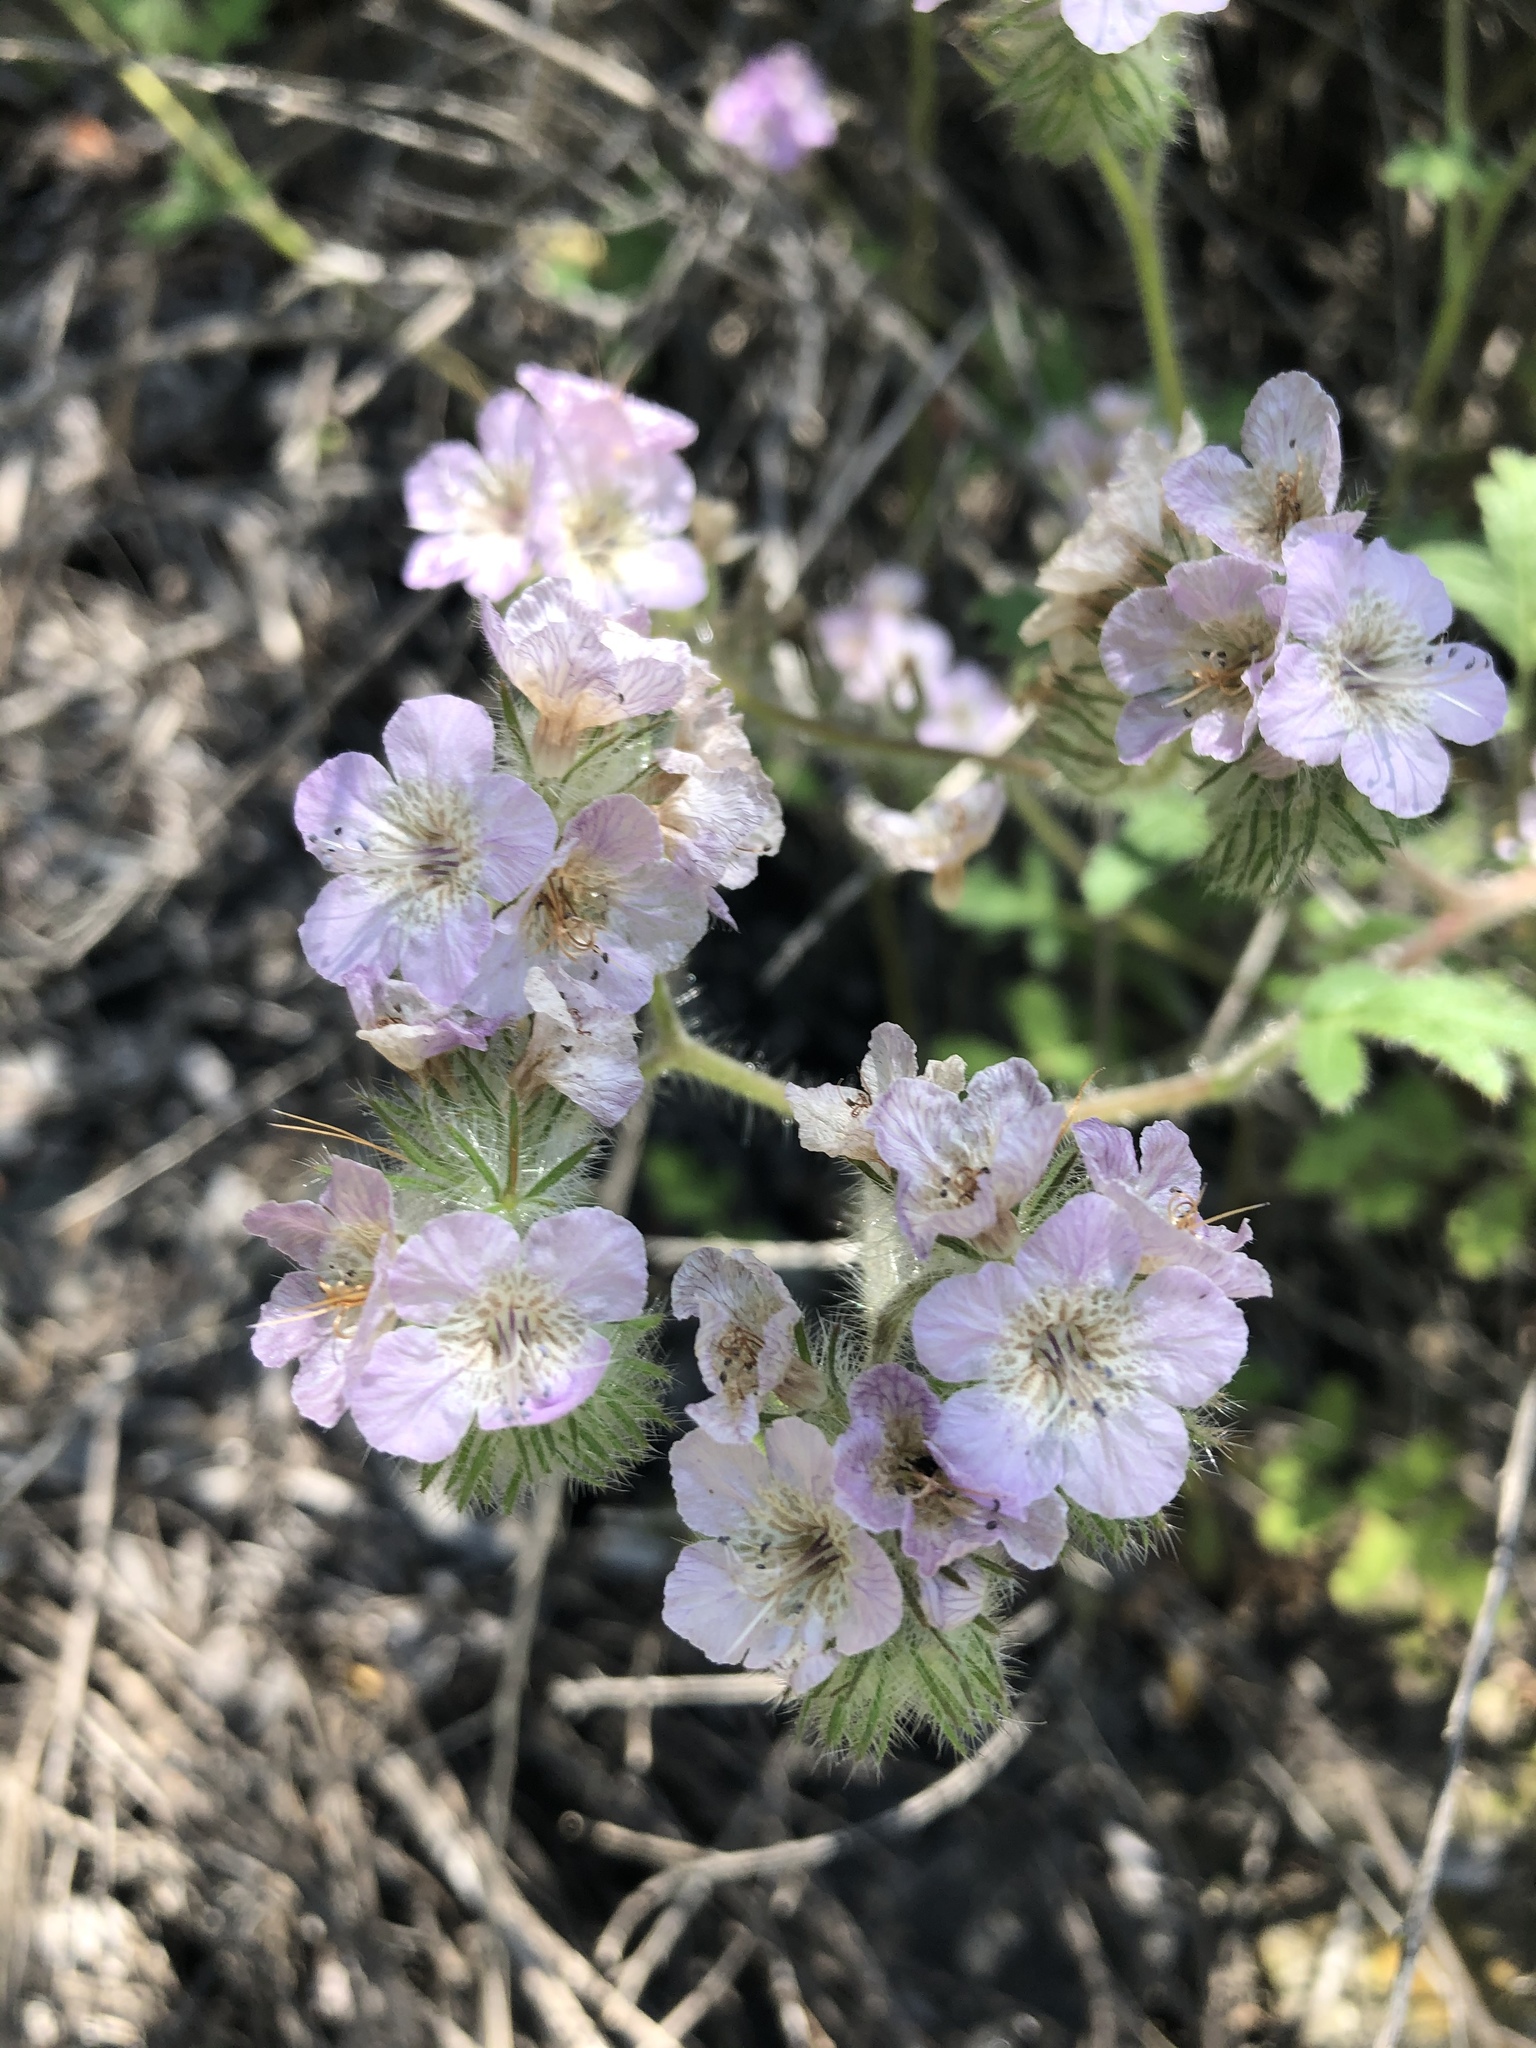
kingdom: Plantae
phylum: Tracheophyta
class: Magnoliopsida
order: Boraginales
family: Hydrophyllaceae
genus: Phacelia
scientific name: Phacelia cicutaria
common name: Caterpillar phacelia
